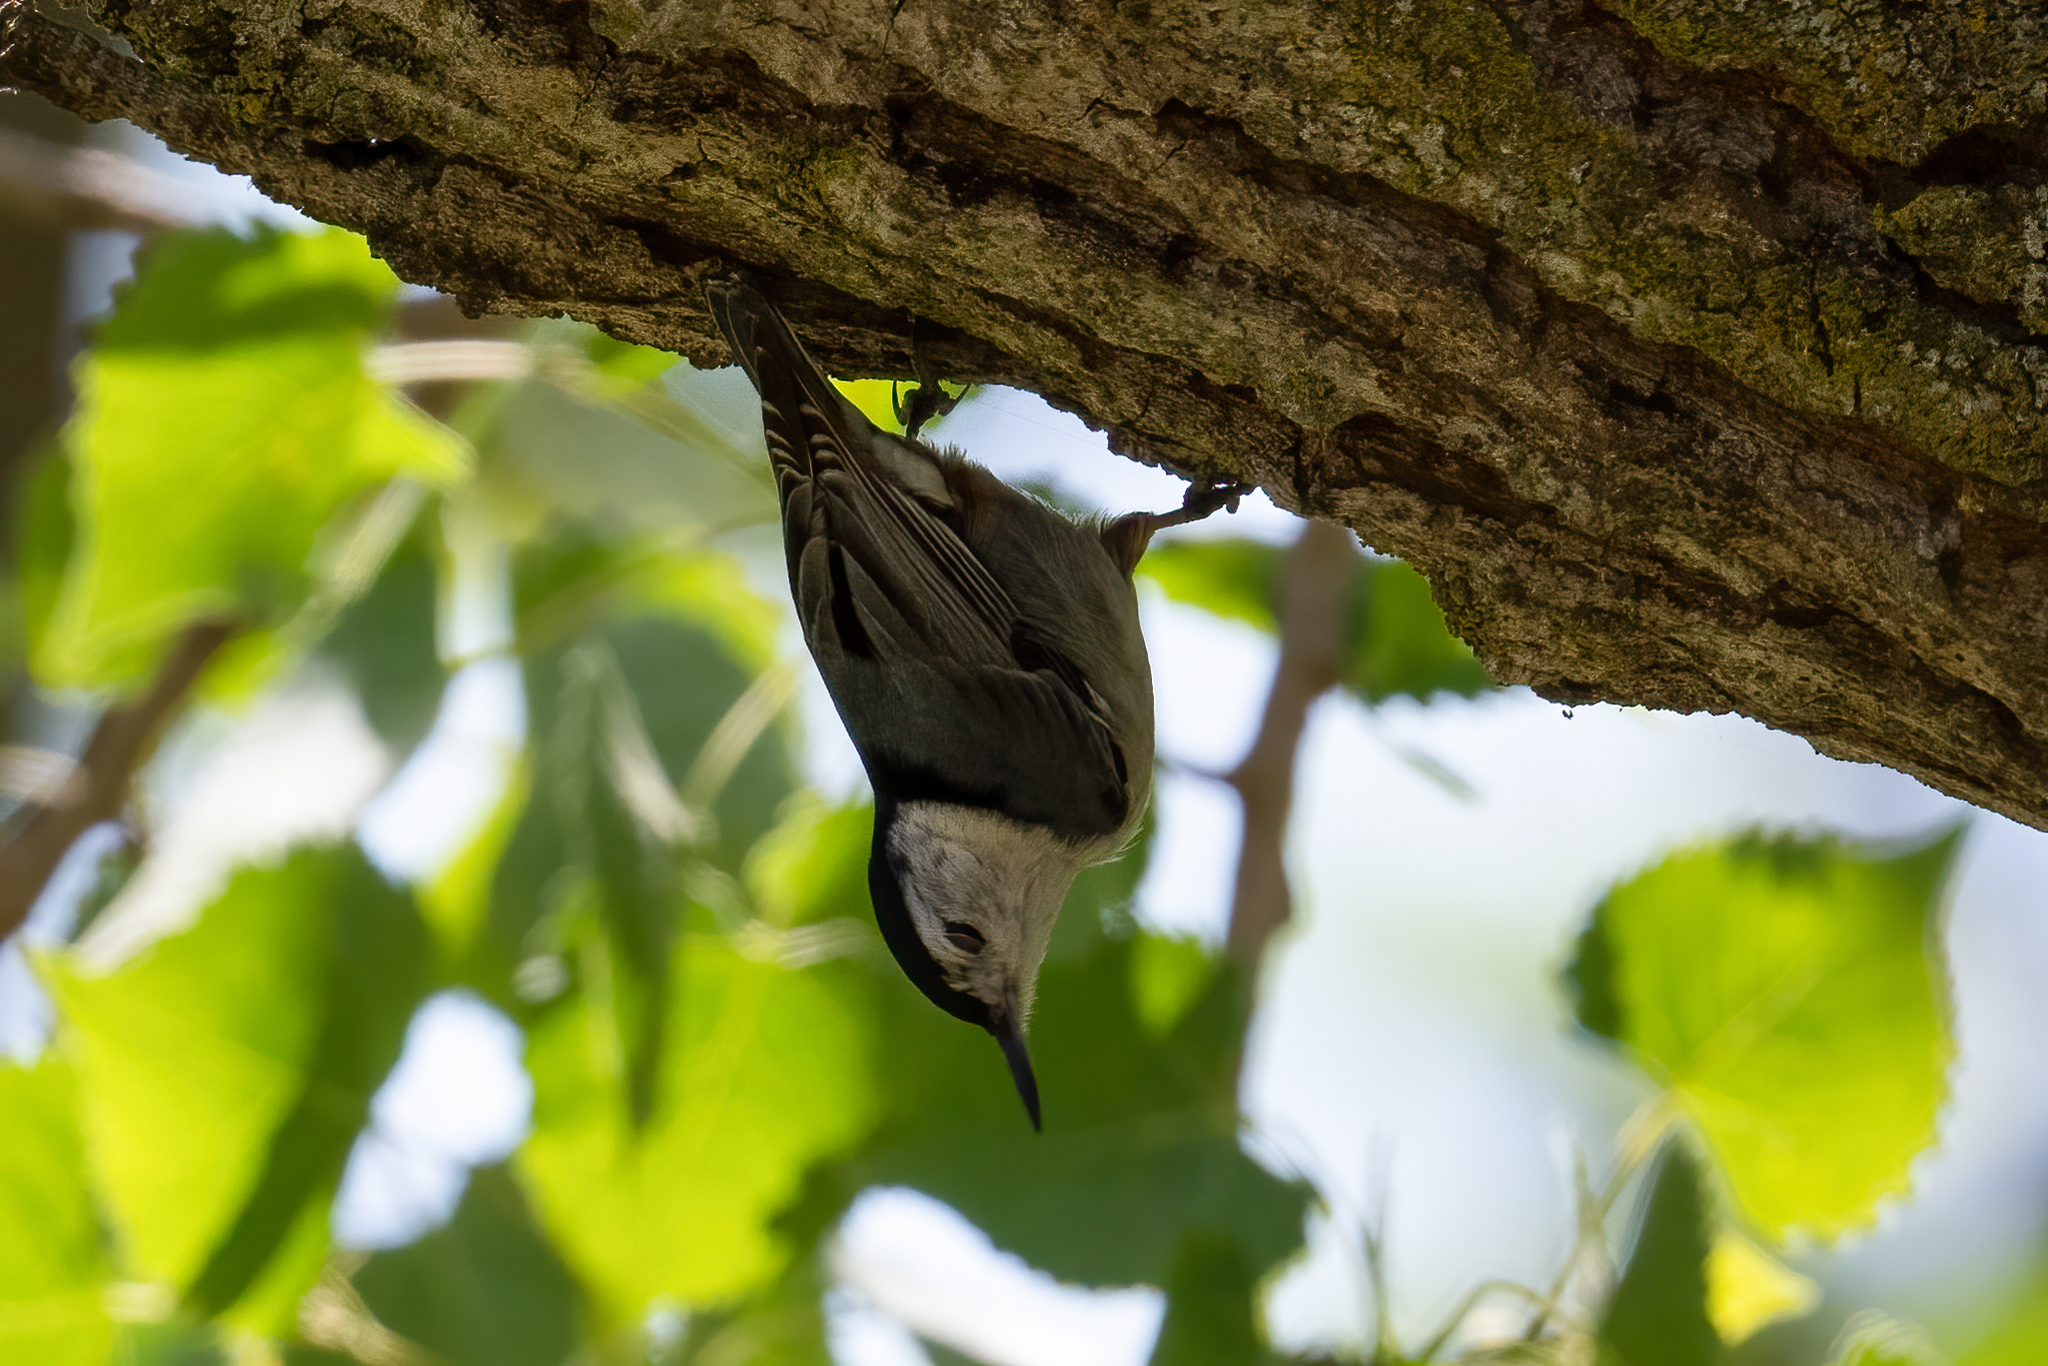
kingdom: Animalia
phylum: Chordata
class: Aves
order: Passeriformes
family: Sittidae
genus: Sitta
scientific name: Sitta carolinensis
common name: White-breasted nuthatch
